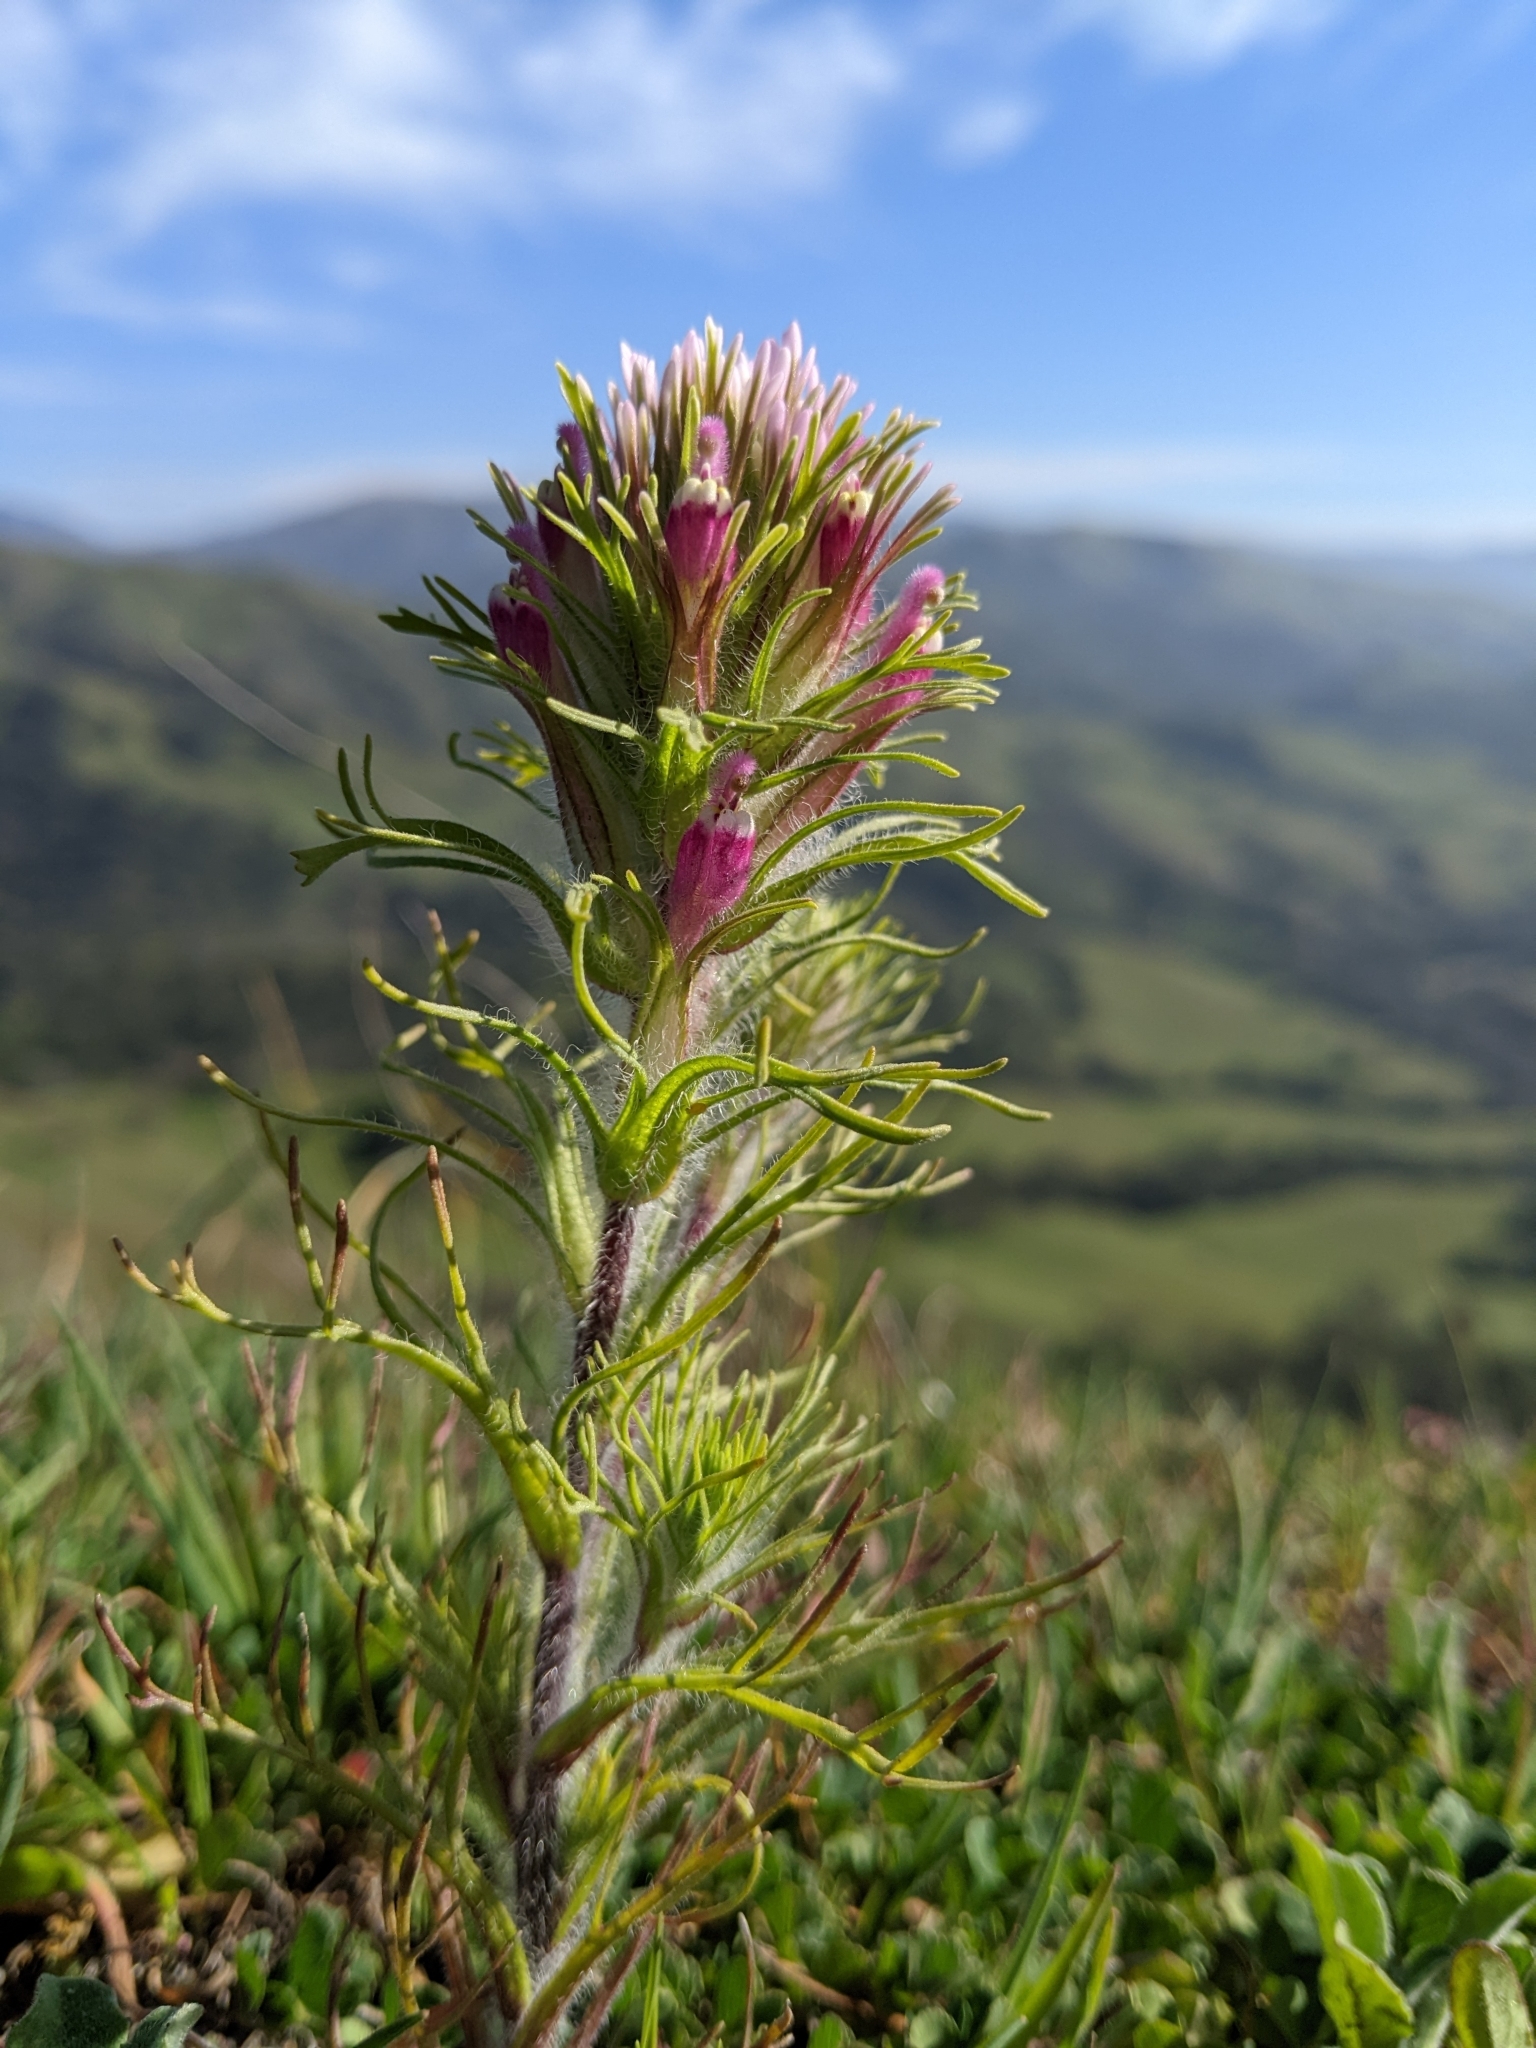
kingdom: Plantae
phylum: Tracheophyta
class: Magnoliopsida
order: Lamiales
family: Orobanchaceae
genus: Castilleja
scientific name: Castilleja exserta
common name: Purple owl-clover
